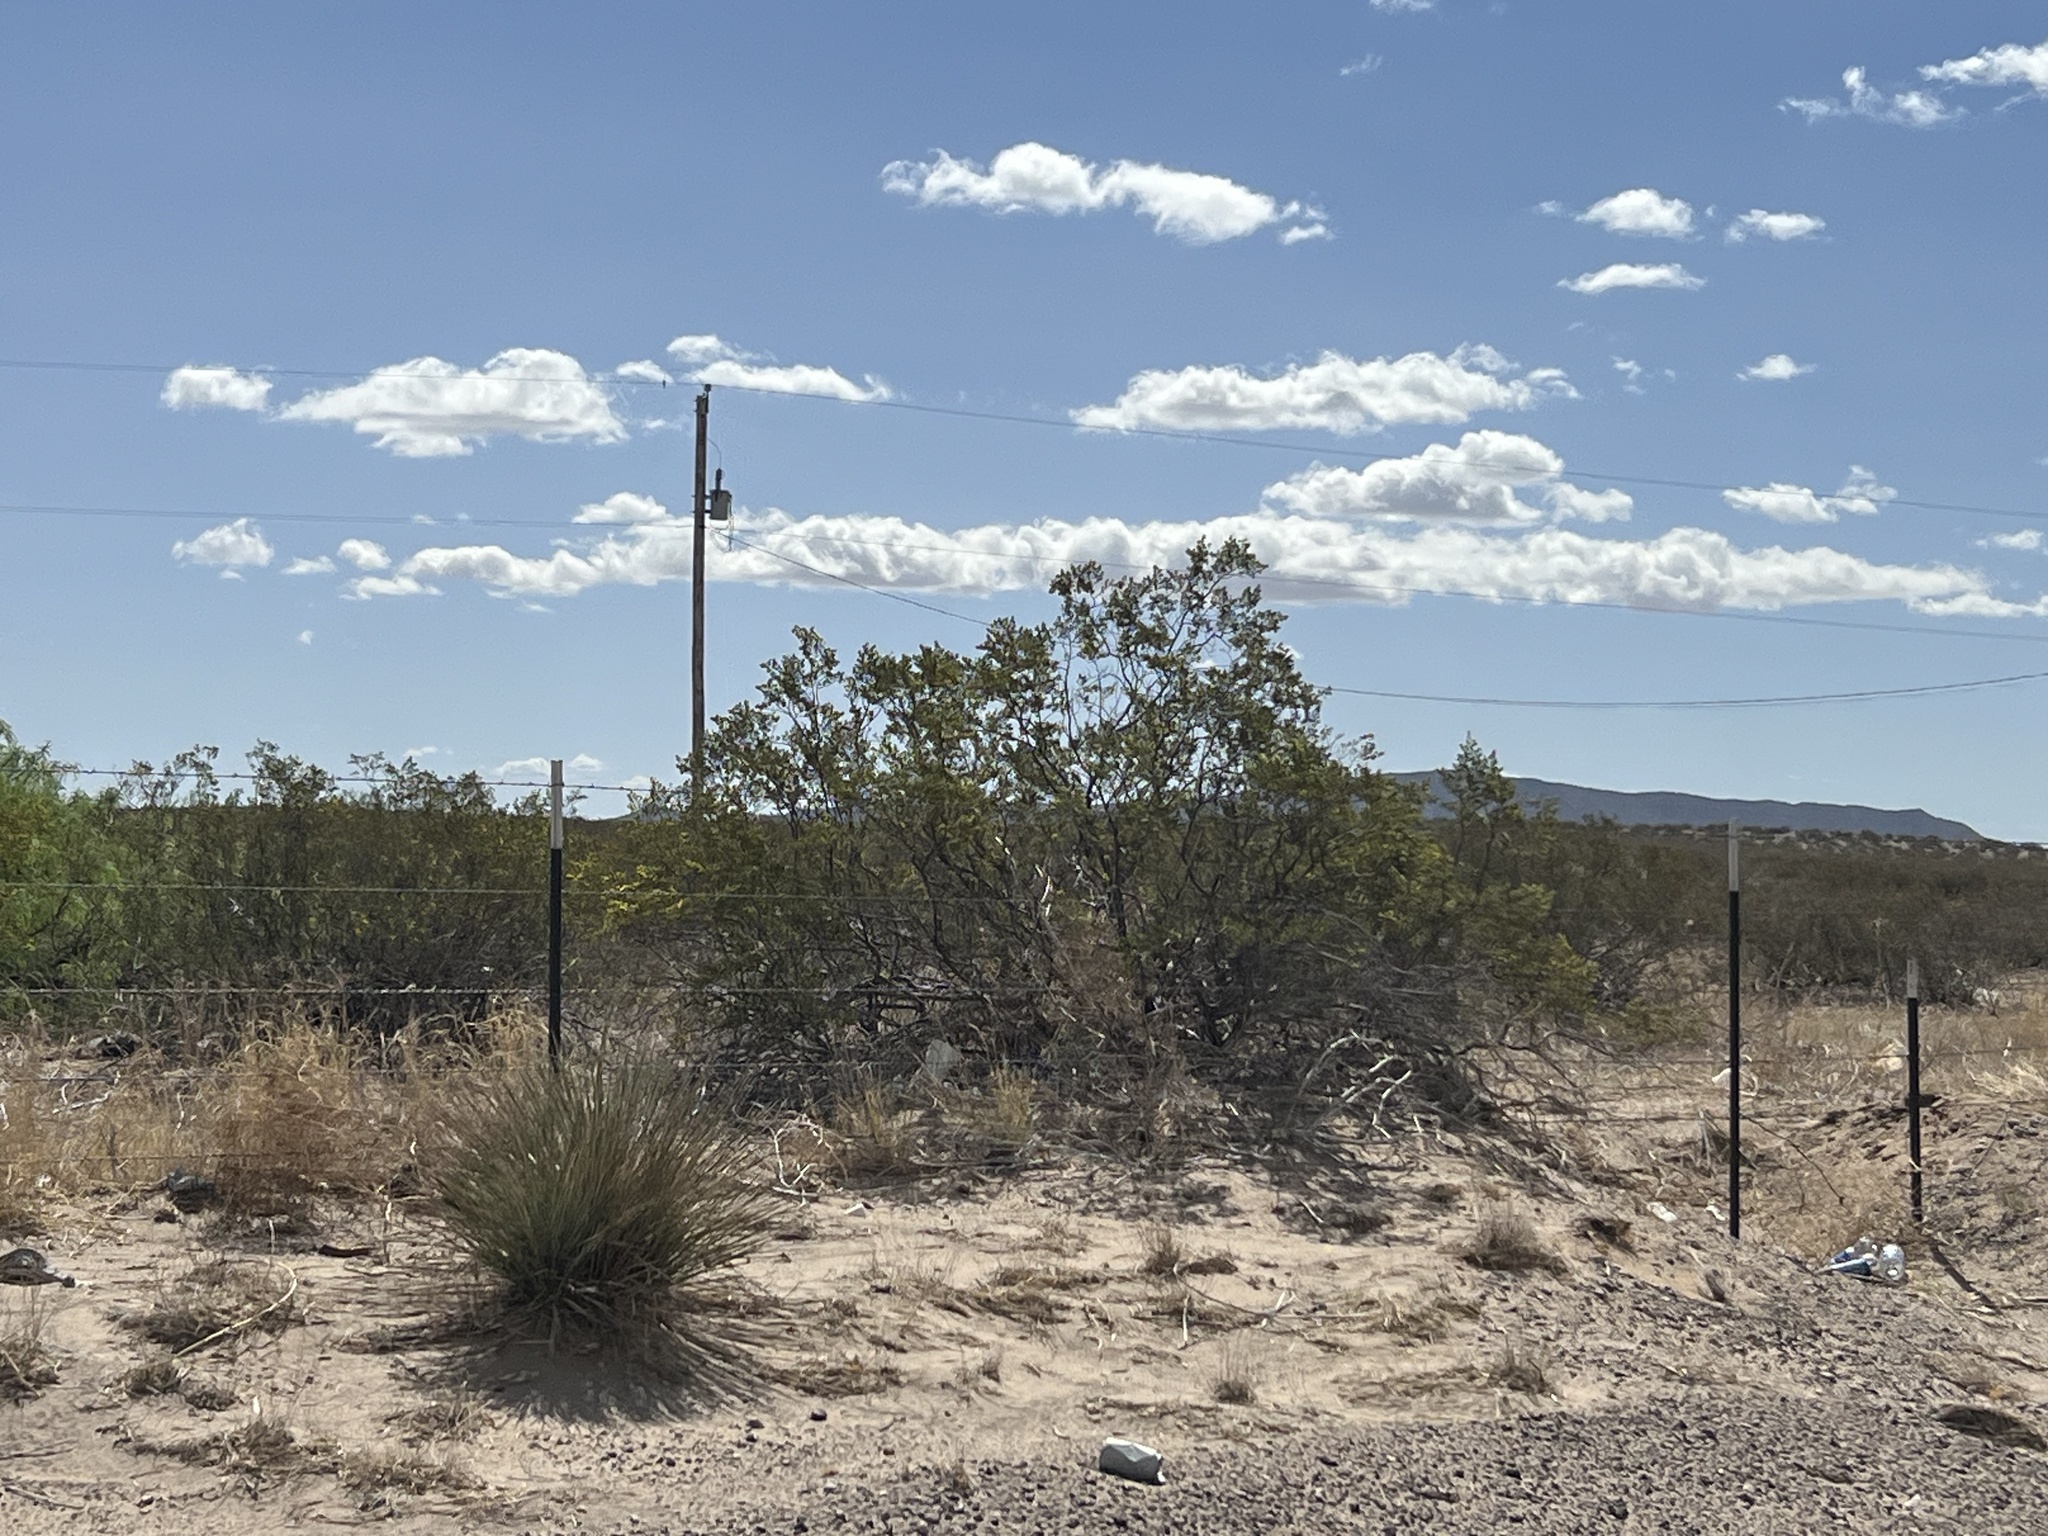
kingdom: Plantae
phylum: Tracheophyta
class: Magnoliopsida
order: Zygophyllales
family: Zygophyllaceae
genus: Larrea
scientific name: Larrea tridentata
